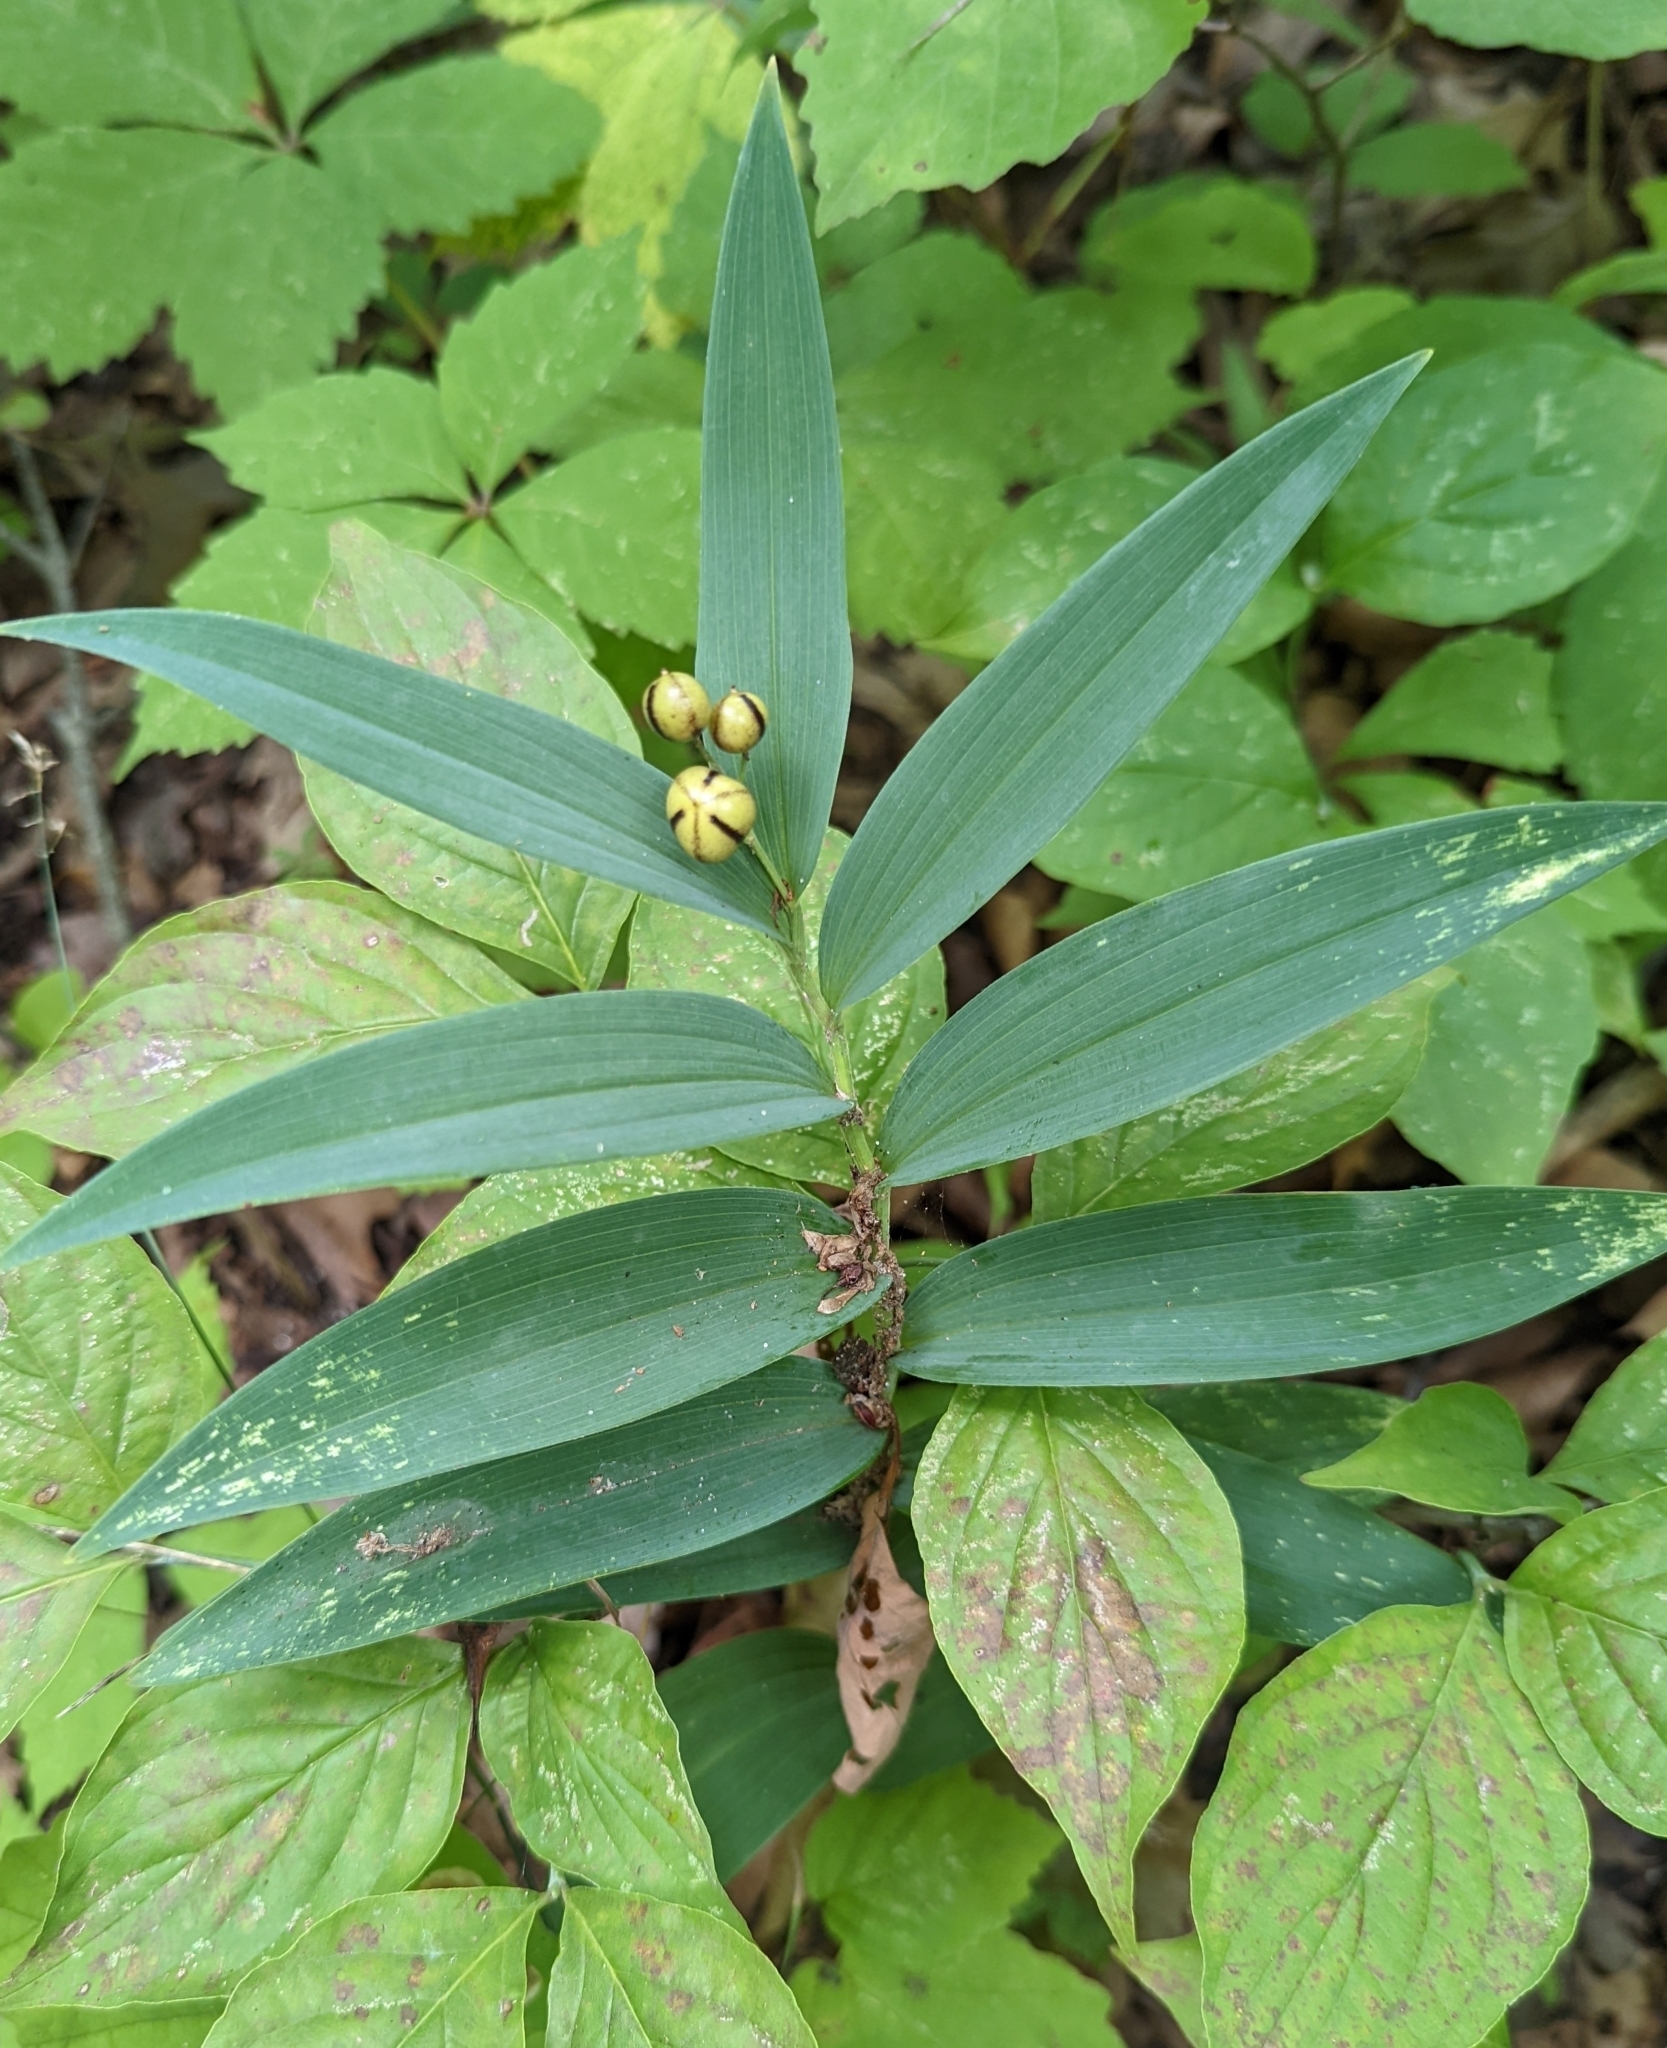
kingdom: Plantae
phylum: Tracheophyta
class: Liliopsida
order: Asparagales
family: Asparagaceae
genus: Maianthemum
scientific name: Maianthemum stellatum
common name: Little false solomon's seal
